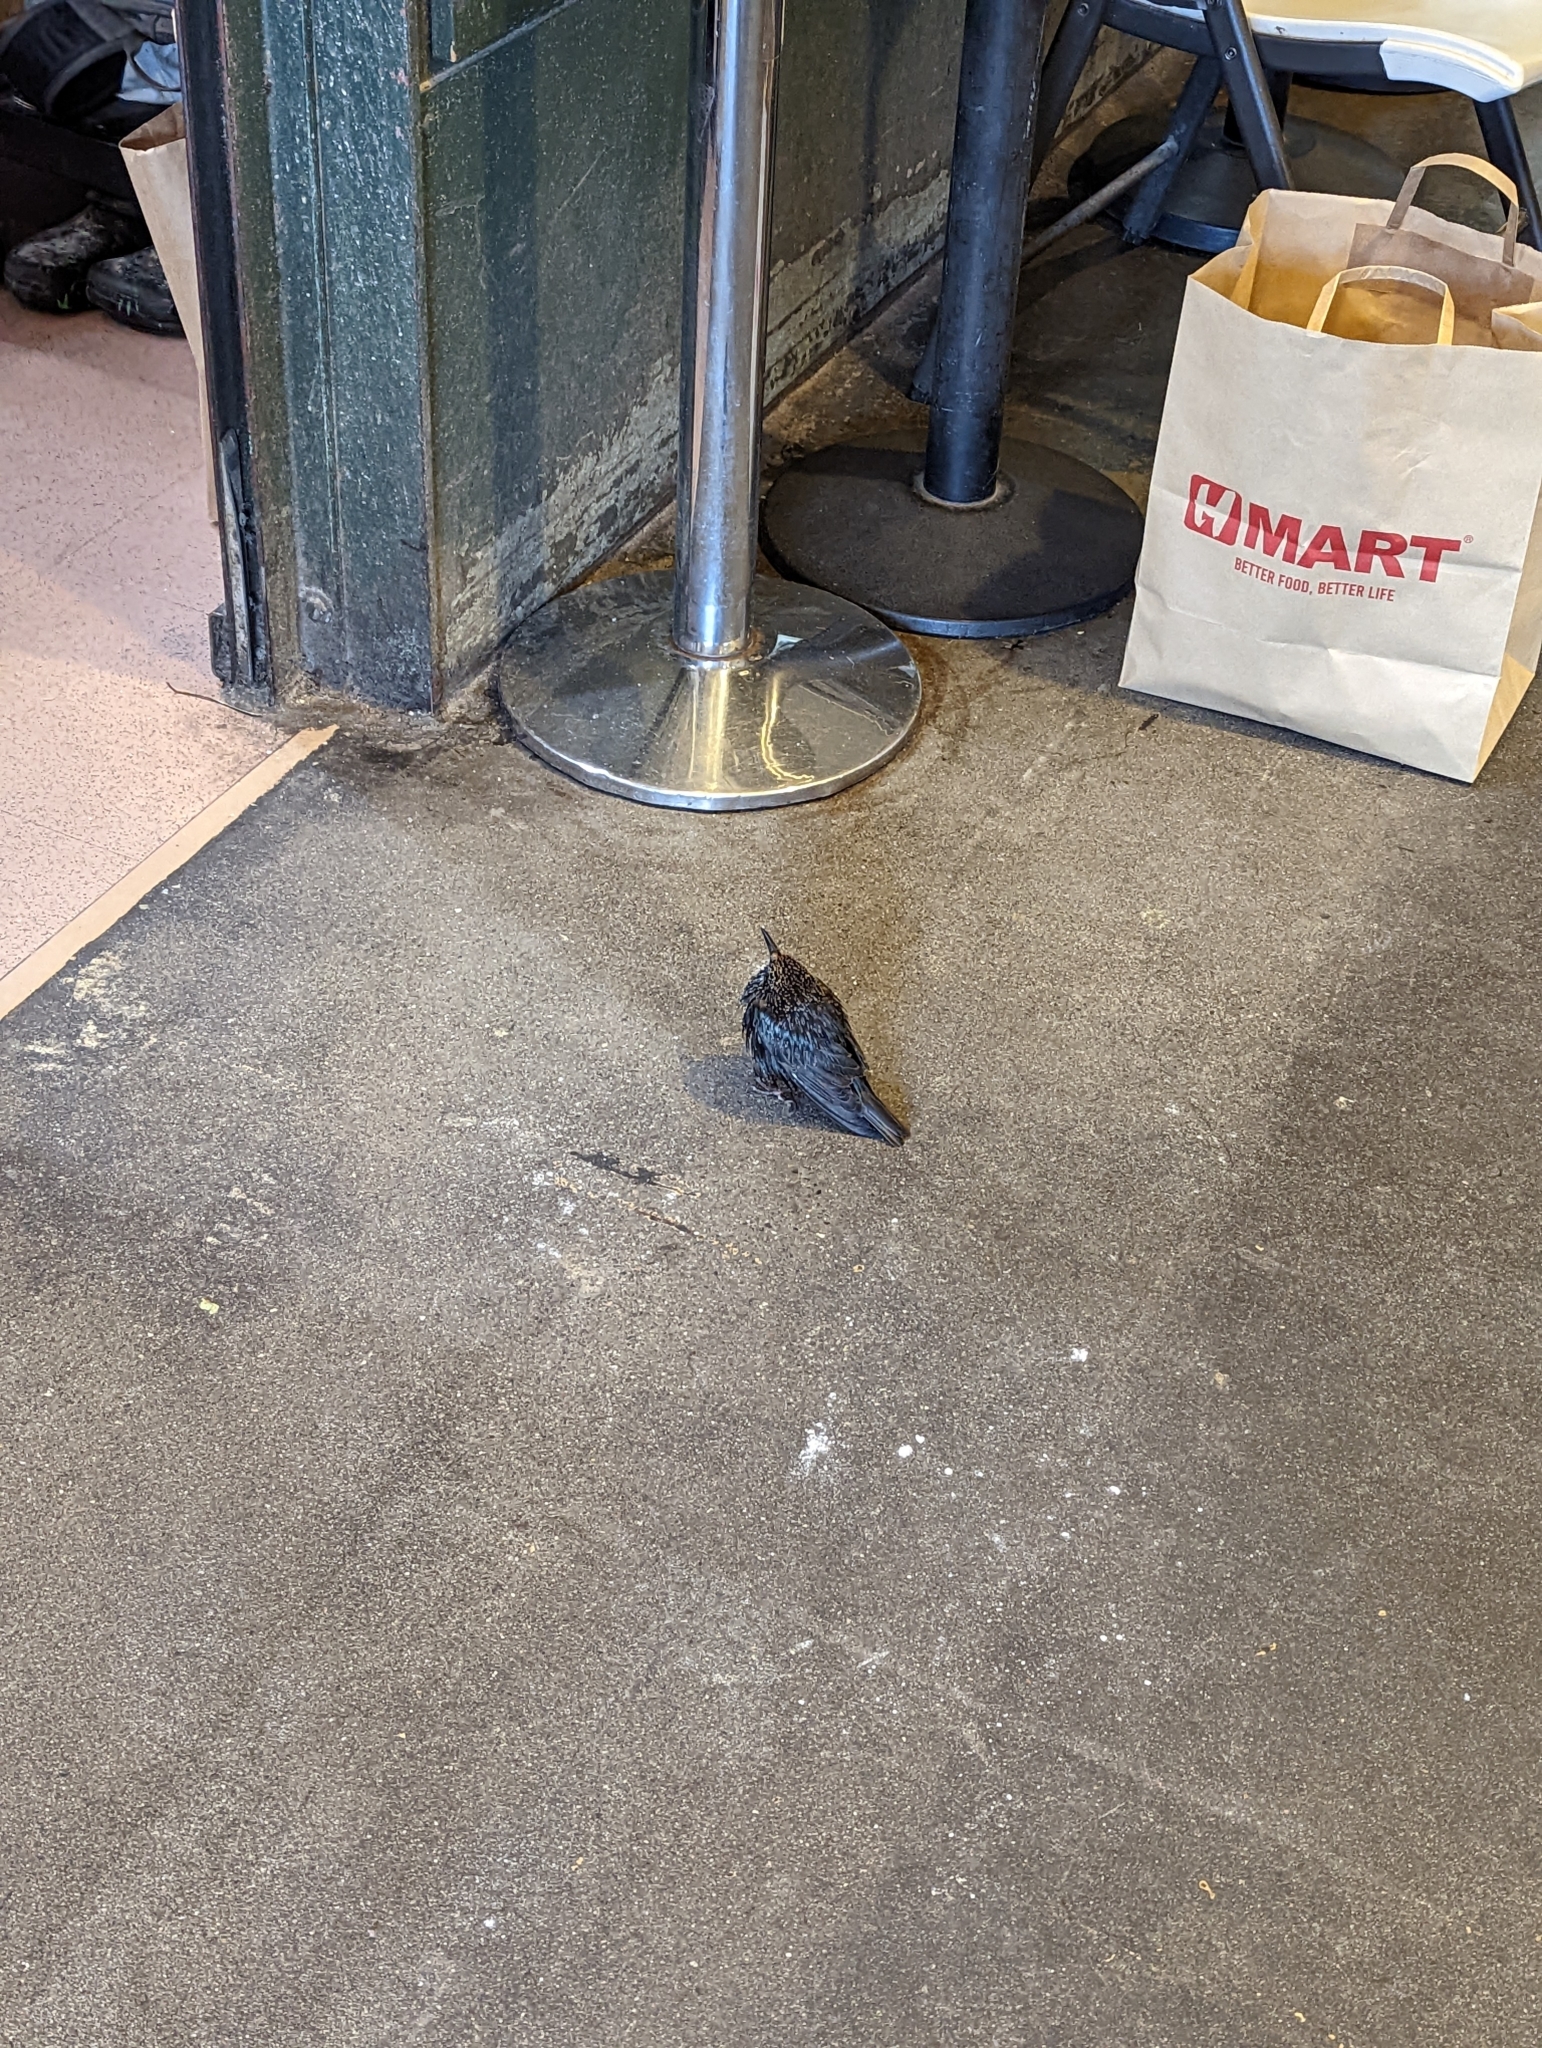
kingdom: Animalia
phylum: Chordata
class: Aves
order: Passeriformes
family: Sturnidae
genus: Sturnus
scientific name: Sturnus vulgaris
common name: Common starling
